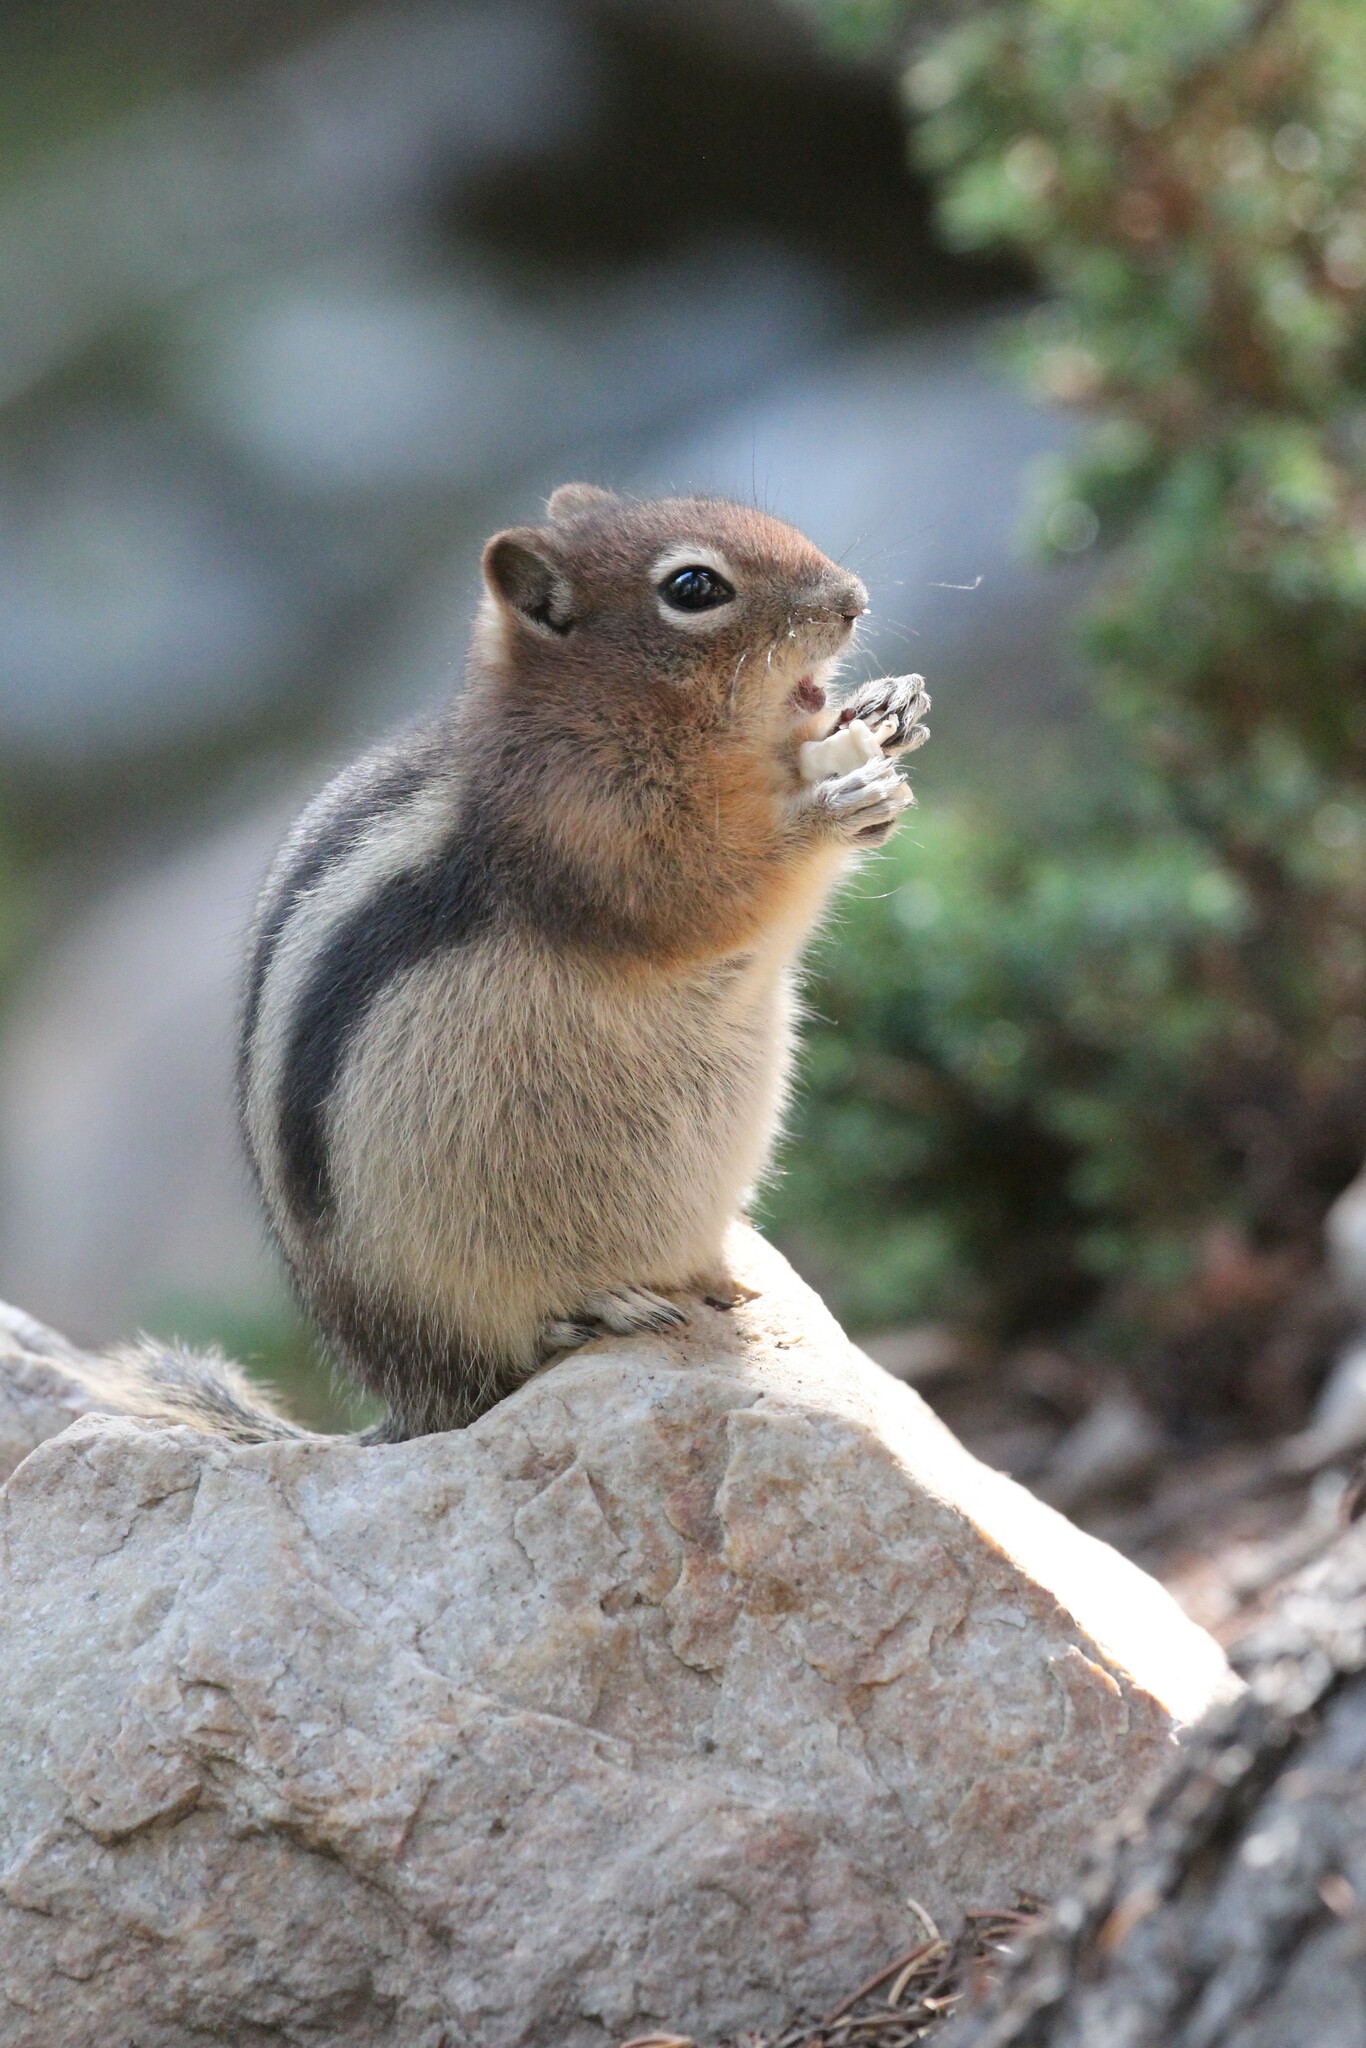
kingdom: Animalia
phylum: Chordata
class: Mammalia
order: Rodentia
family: Sciuridae
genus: Callospermophilus
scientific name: Callospermophilus lateralis
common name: Golden-mantled ground squirrel
